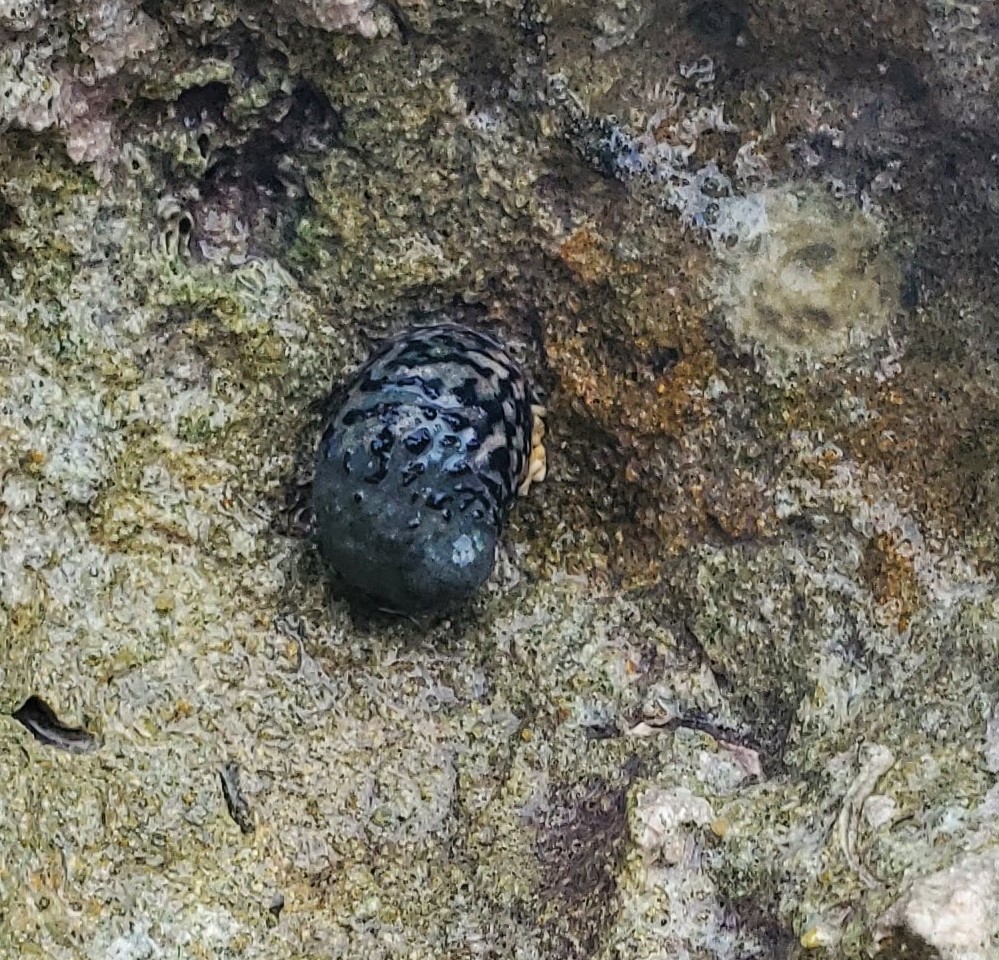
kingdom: Animalia
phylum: Mollusca
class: Gastropoda
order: Cycloneritida
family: Neritidae
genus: Nerita
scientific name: Nerita tessellata
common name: Checkered nerite
